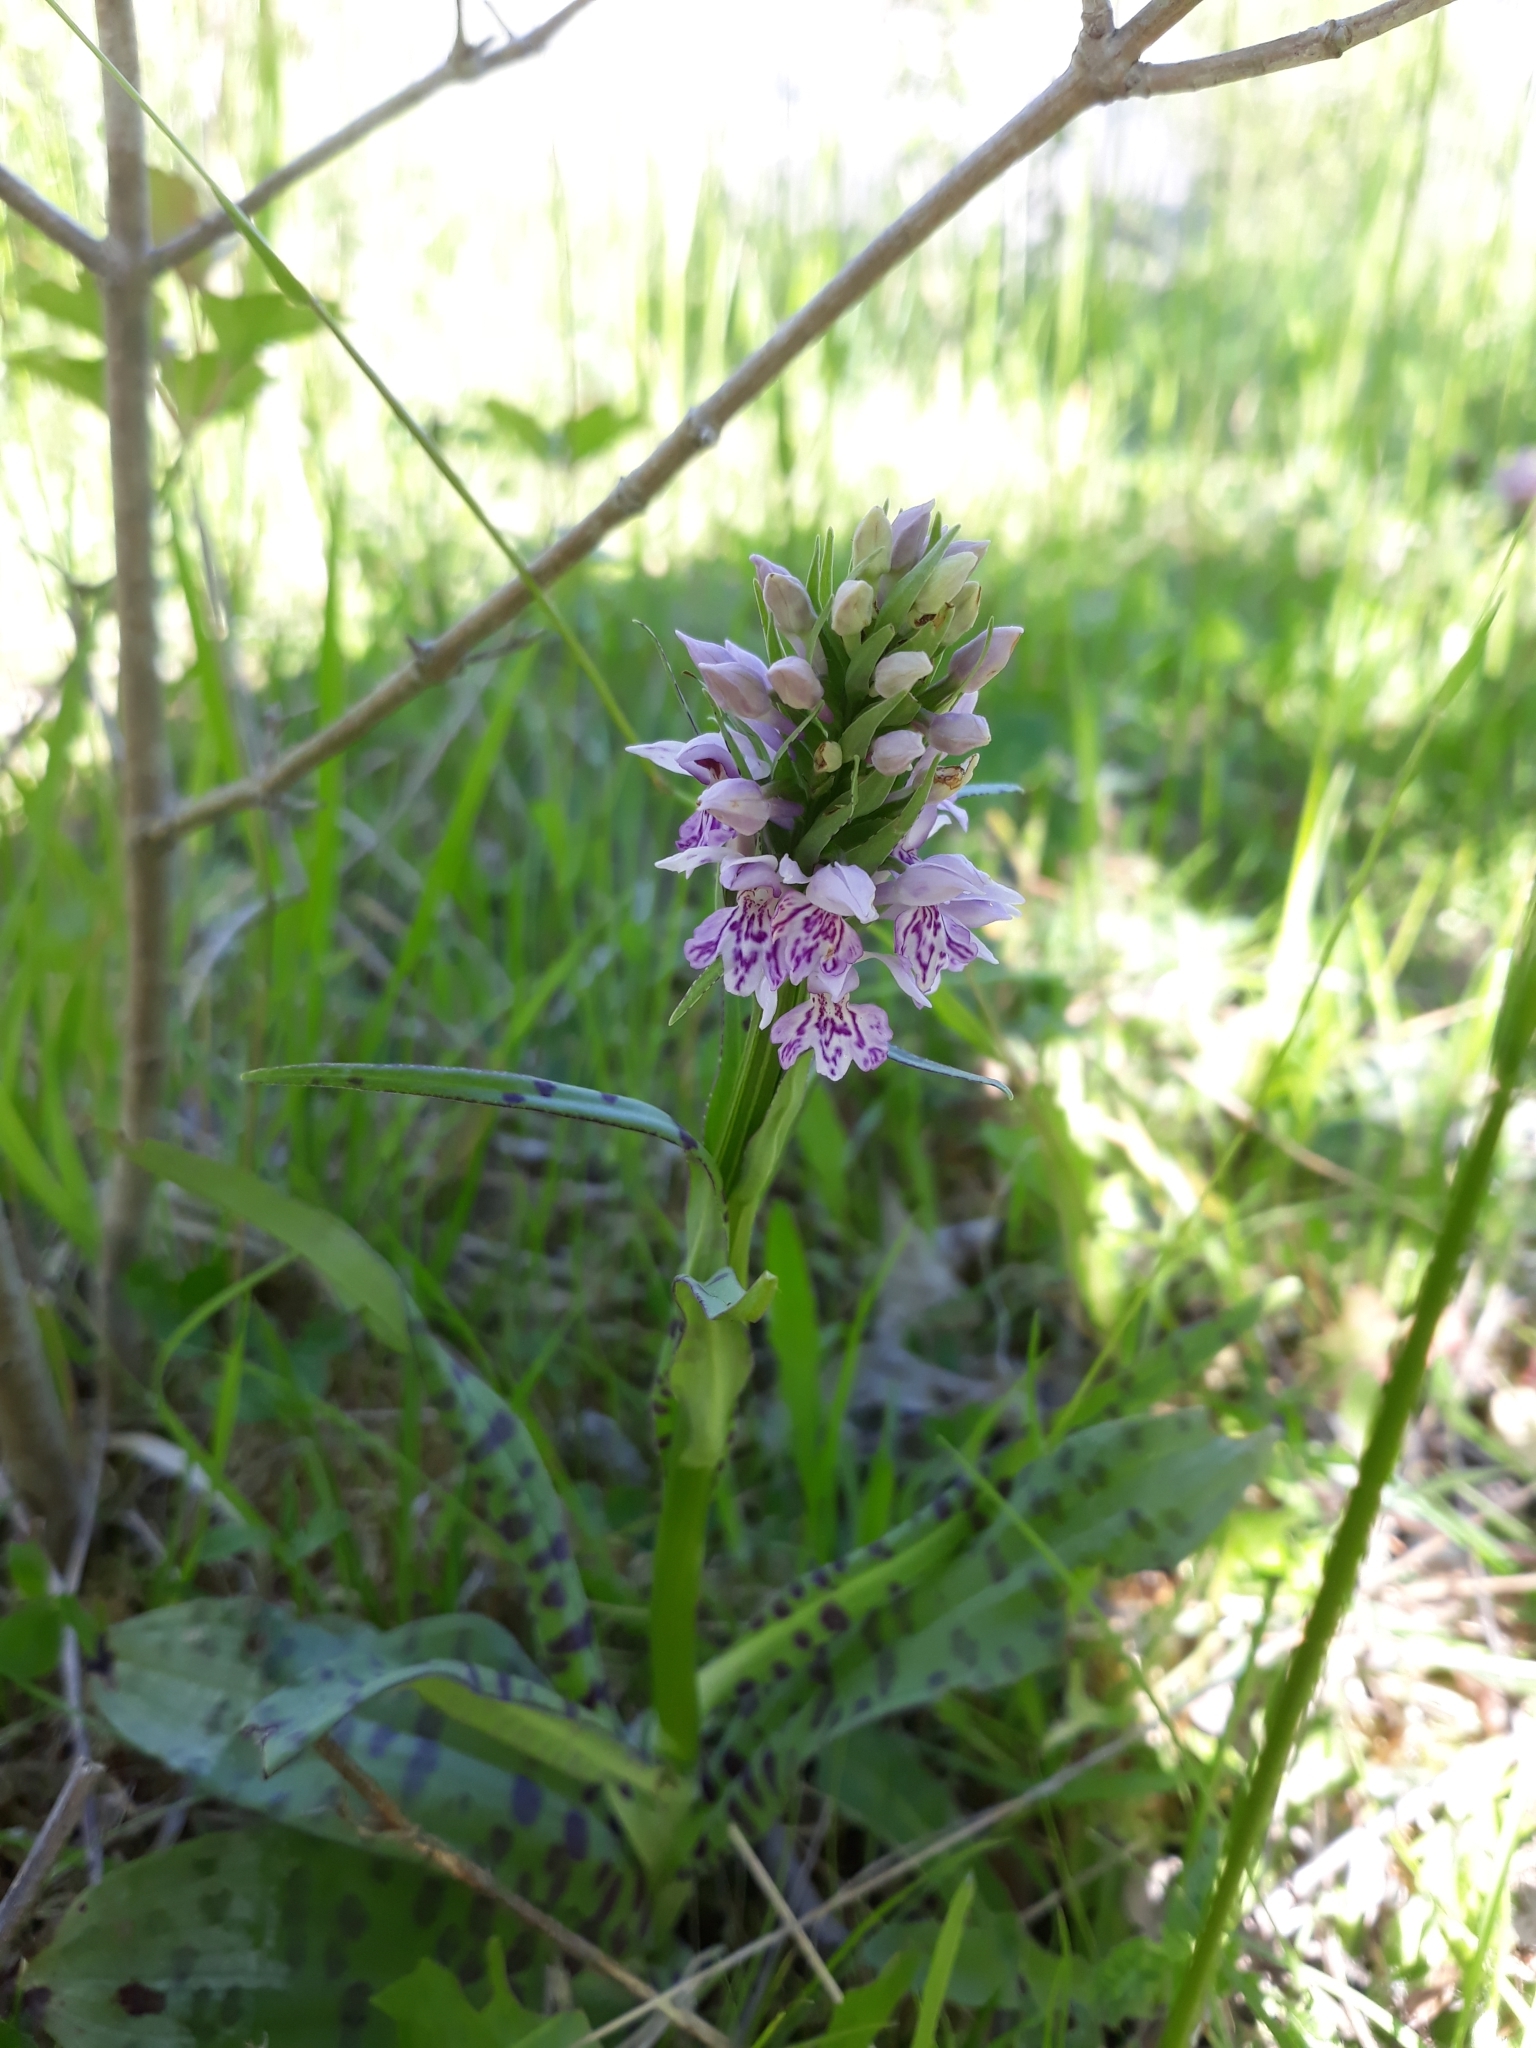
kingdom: Plantae
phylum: Tracheophyta
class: Liliopsida
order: Asparagales
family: Orchidaceae
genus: Dactylorhiza
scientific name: Dactylorhiza maculata
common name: Heath spotted-orchid
